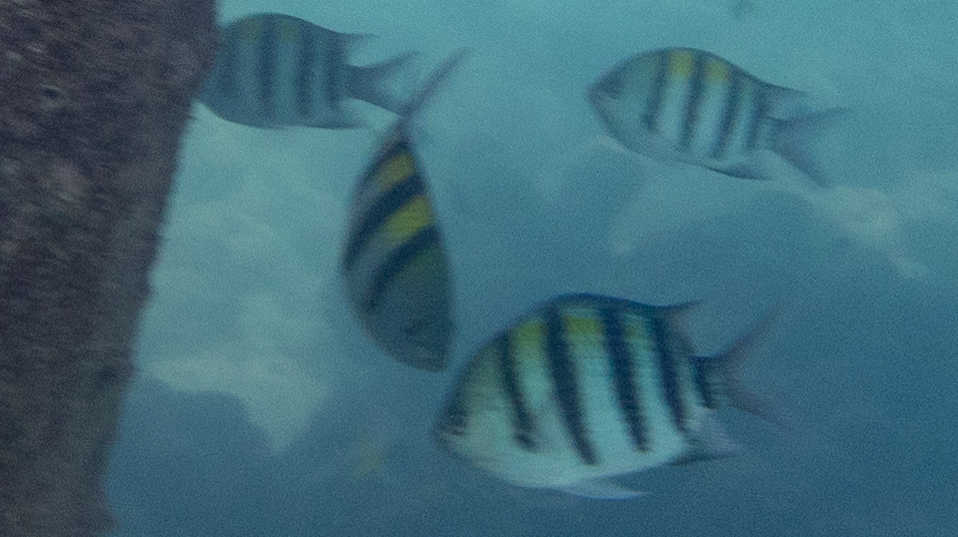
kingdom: Animalia
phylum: Chordata
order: Perciformes
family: Pomacentridae
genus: Abudefduf
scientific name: Abudefduf vaigiensis
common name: Indo-pacific sergeant
